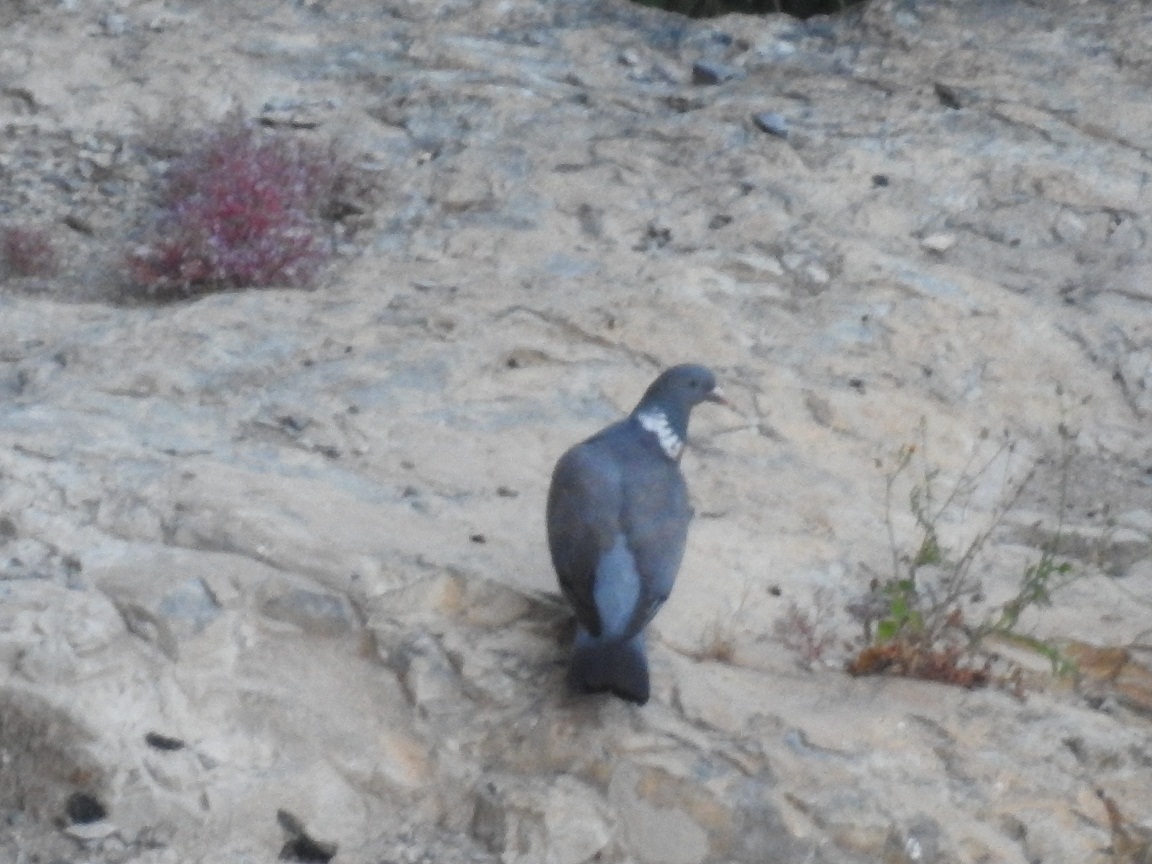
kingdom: Animalia
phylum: Chordata
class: Aves
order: Columbiformes
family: Columbidae
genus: Columba
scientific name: Columba palumbus
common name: Common wood pigeon
